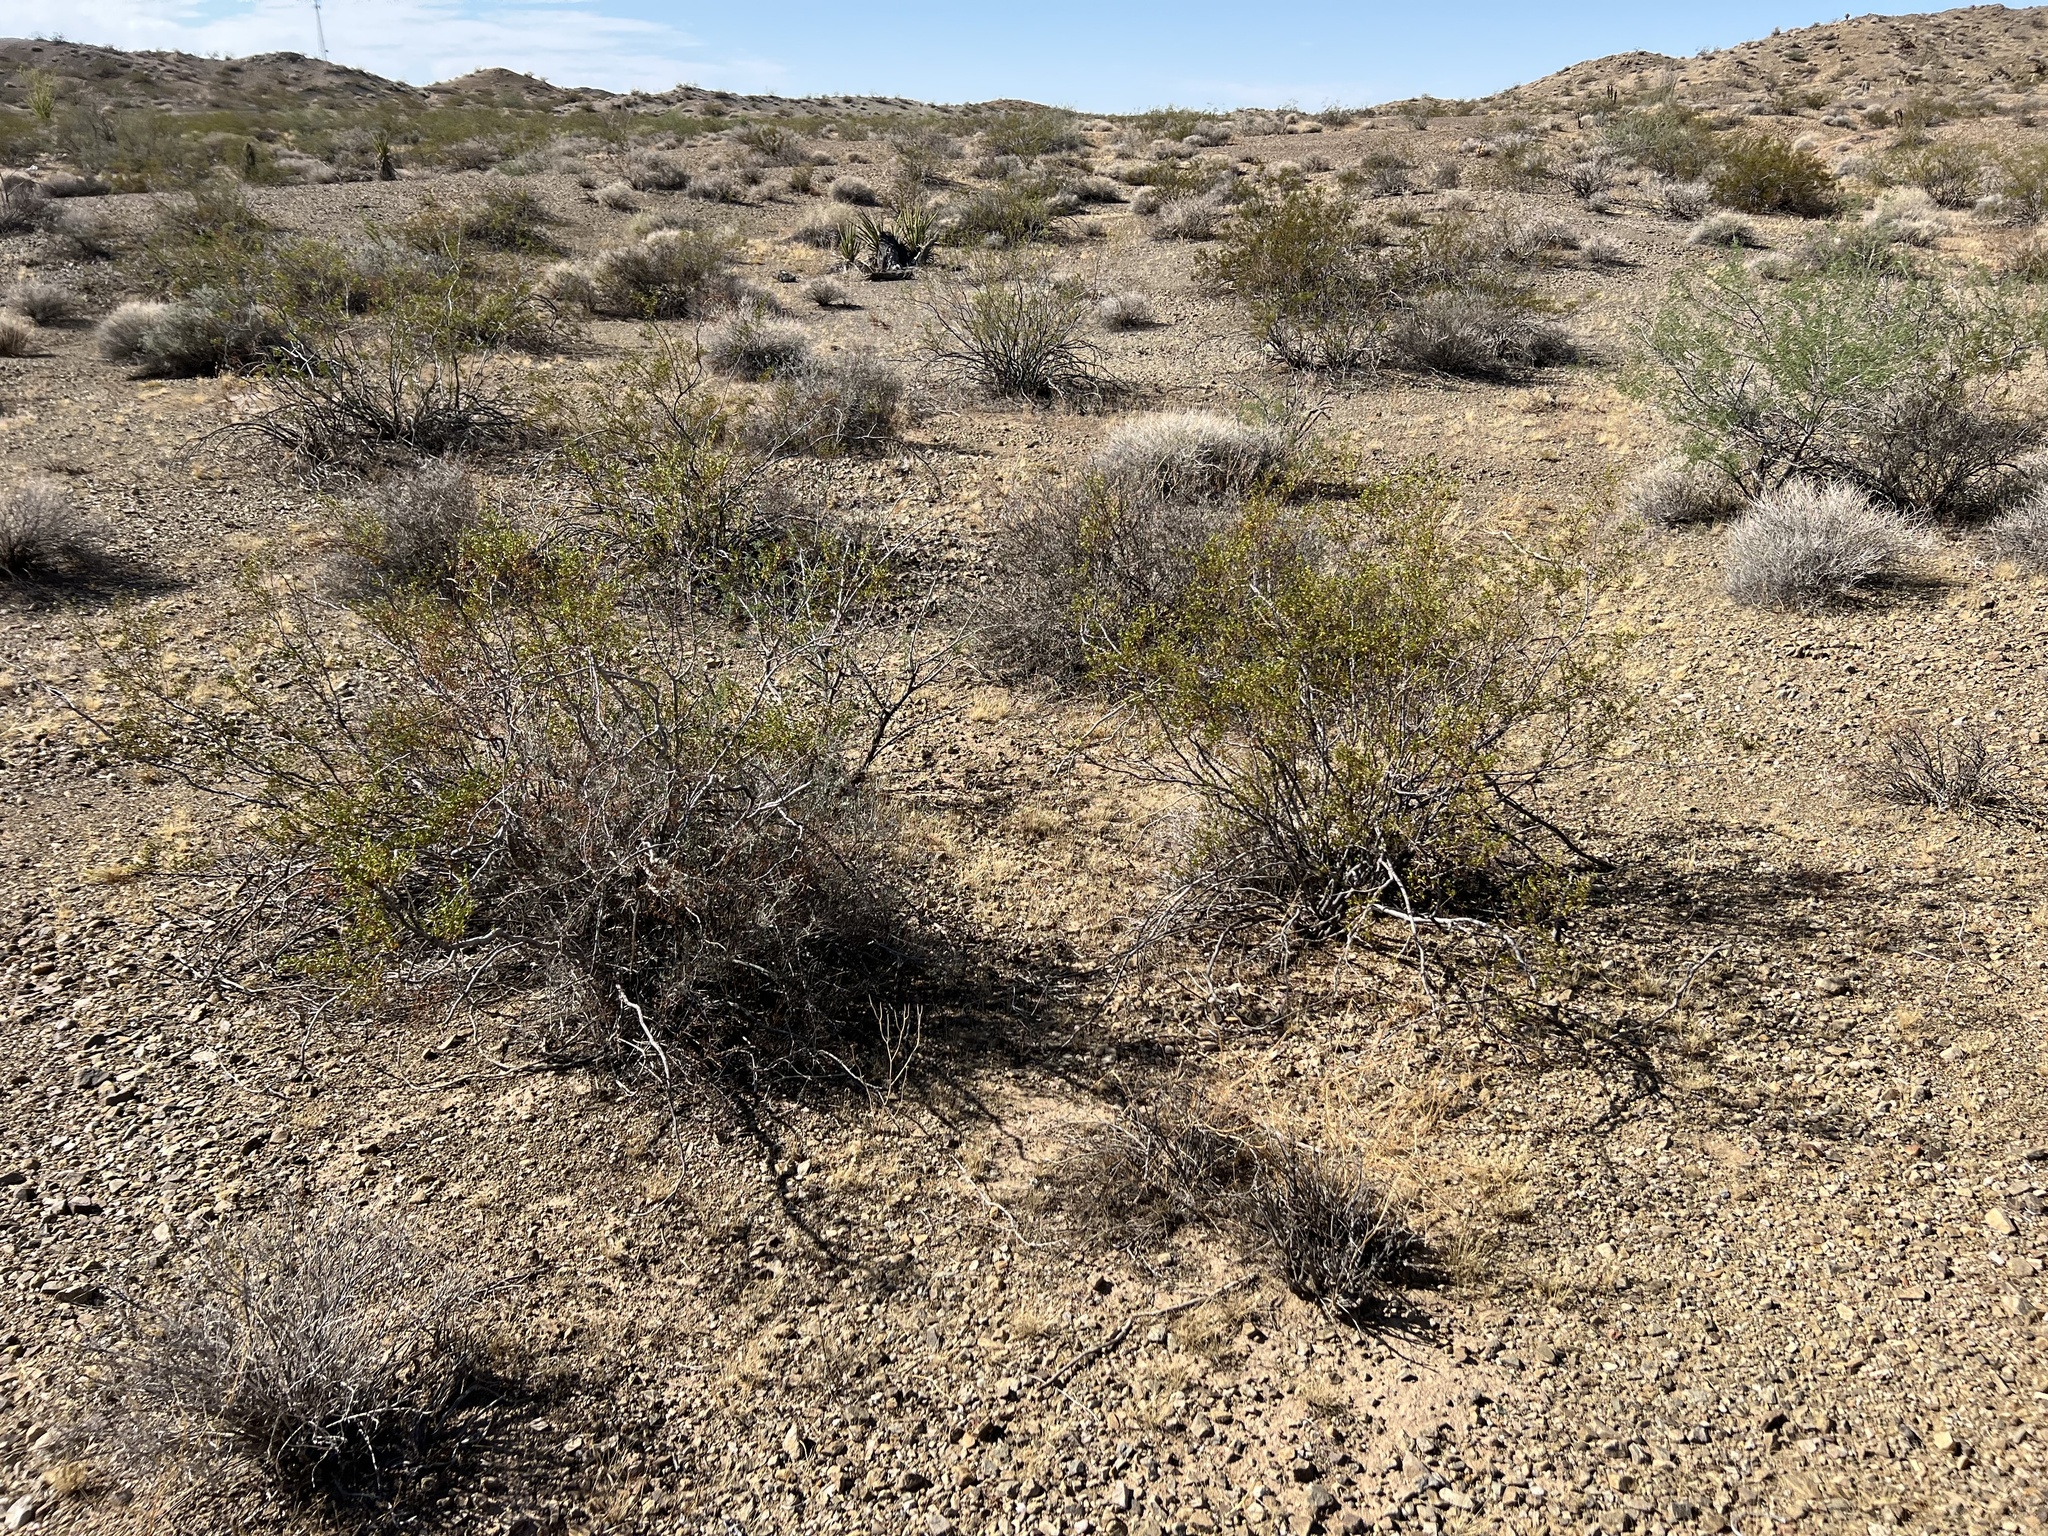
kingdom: Plantae
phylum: Tracheophyta
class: Magnoliopsida
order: Zygophyllales
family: Zygophyllaceae
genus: Larrea
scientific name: Larrea tridentata
